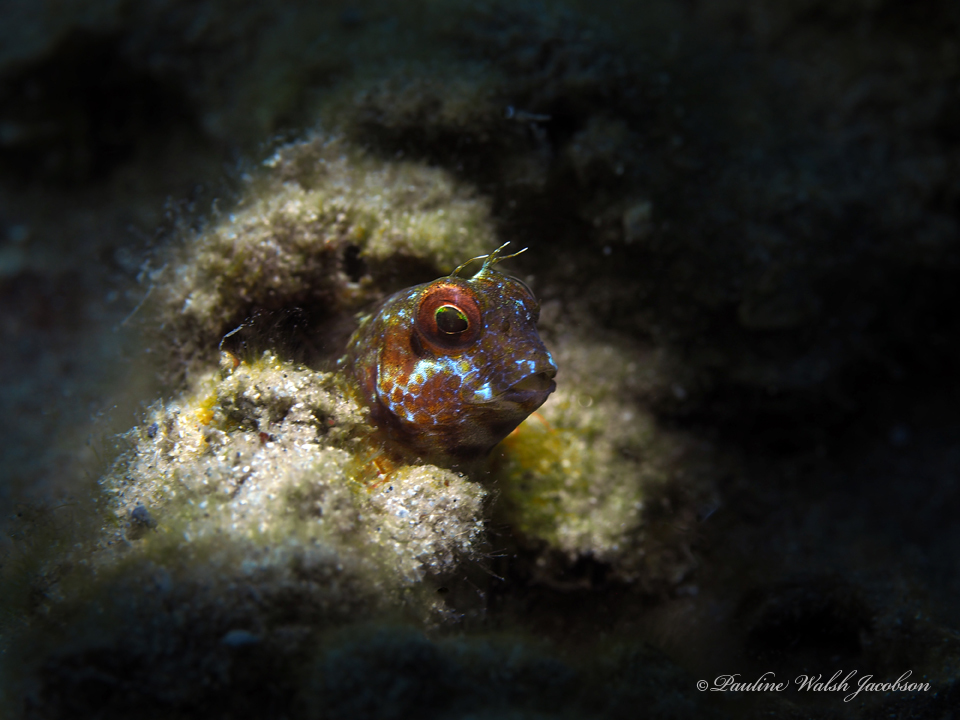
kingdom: Animalia
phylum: Chordata
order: Perciformes
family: Blenniidae
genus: Parablennius
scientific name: Parablennius marmoreus
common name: Seaweed blenny
